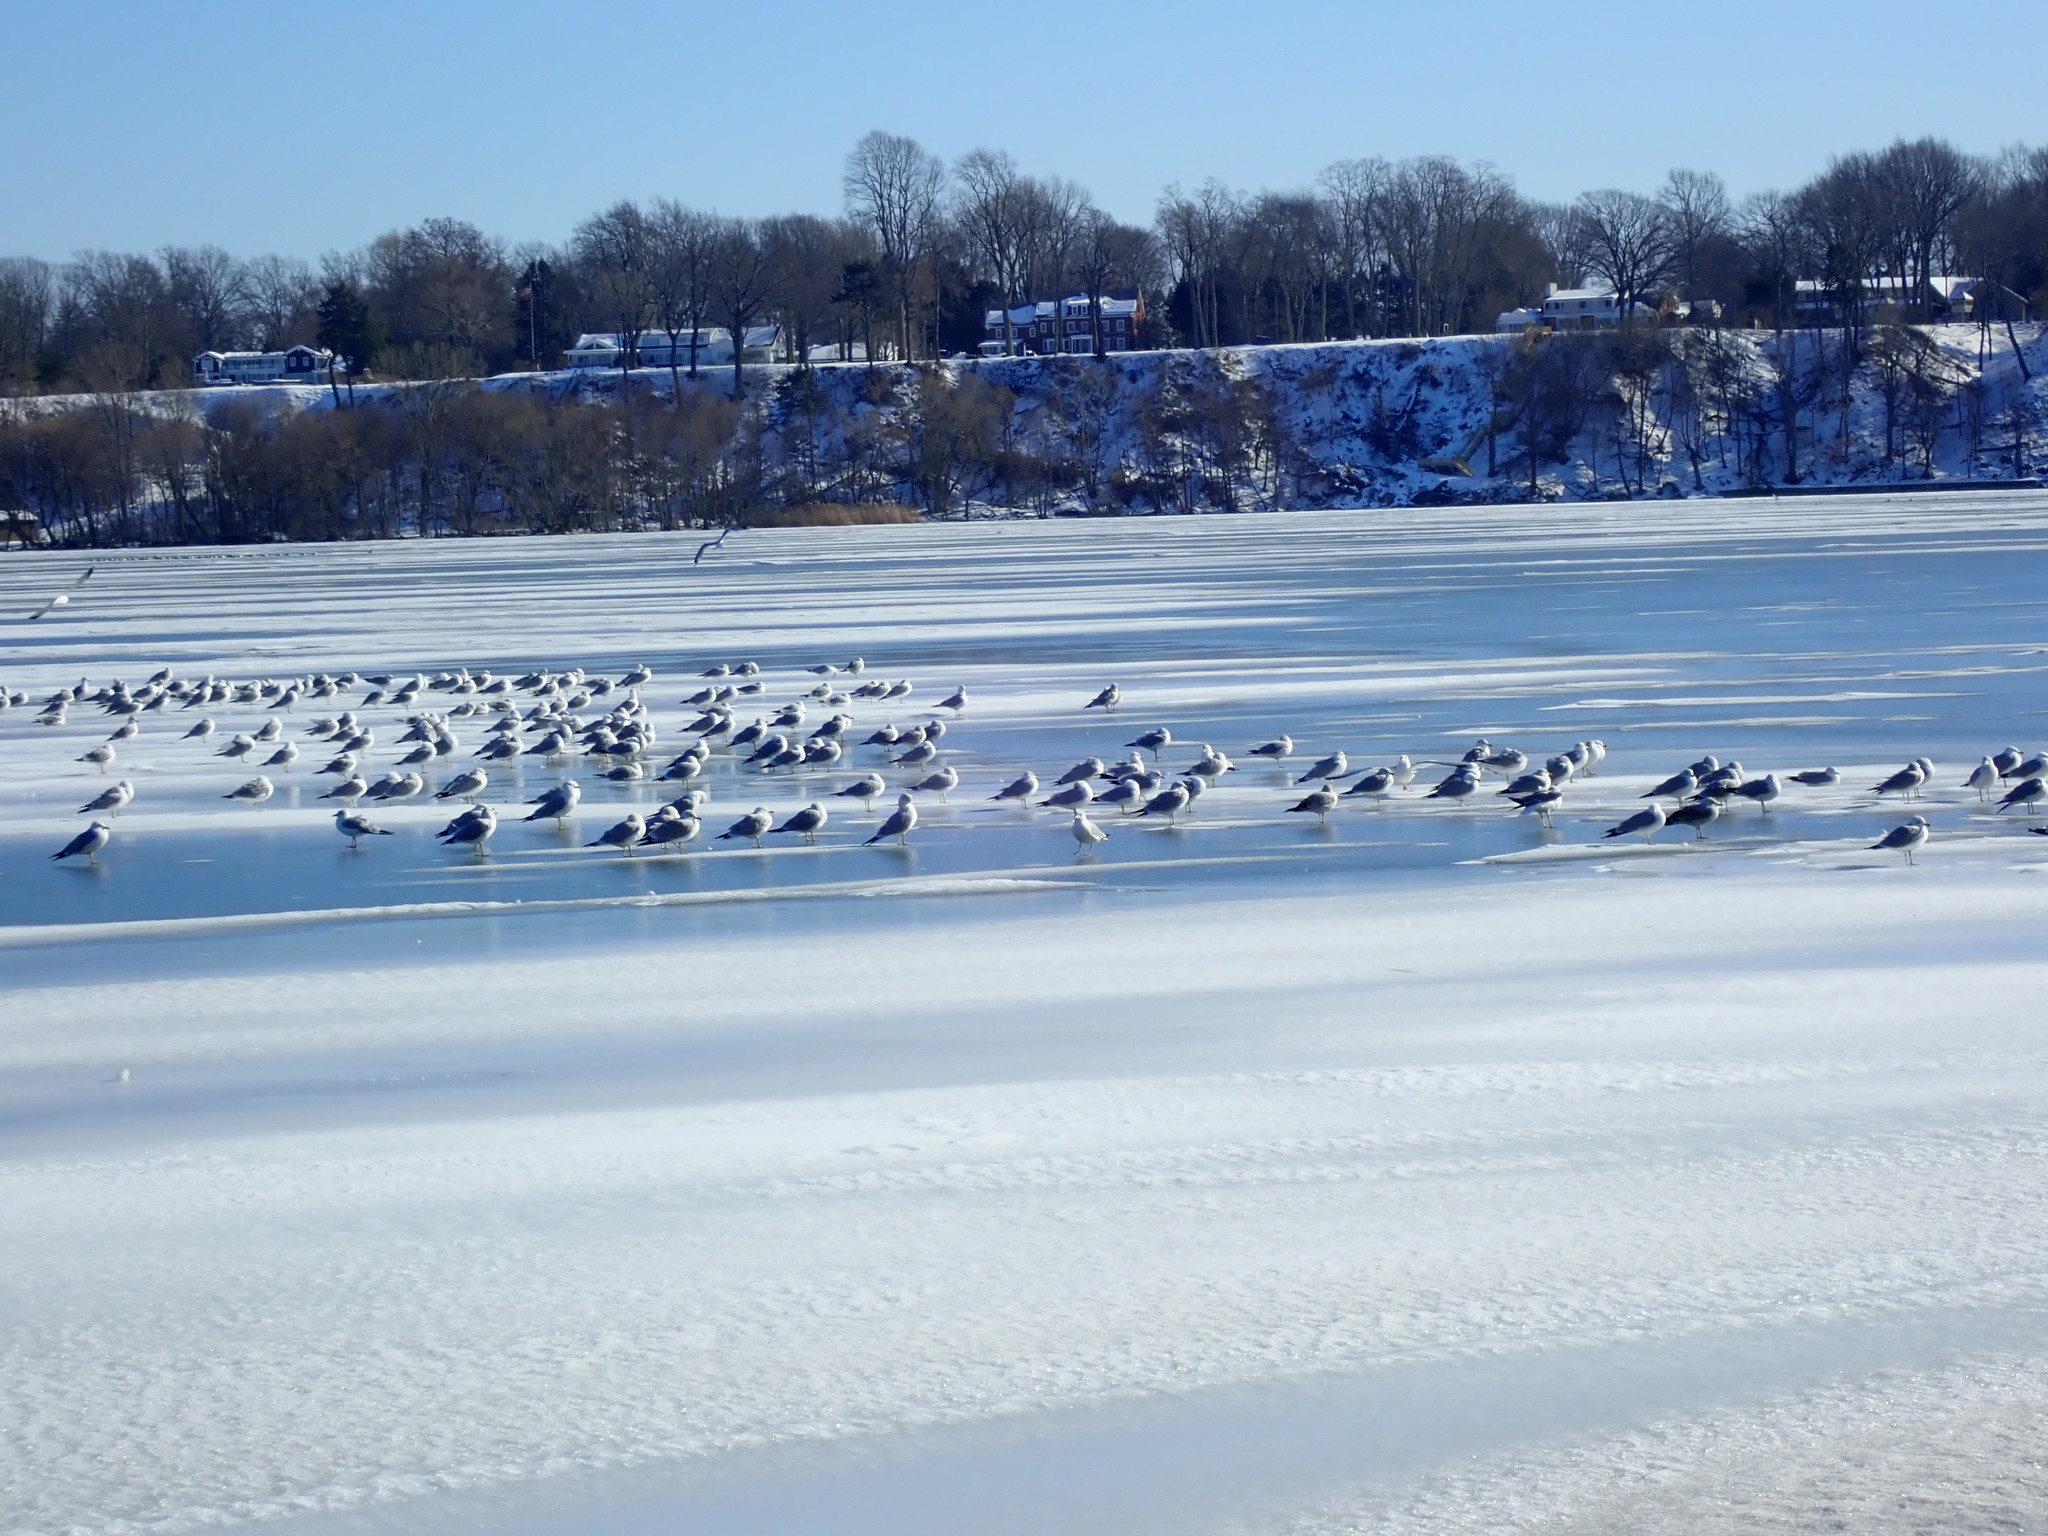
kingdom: Animalia
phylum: Chordata
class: Aves
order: Charadriiformes
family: Laridae
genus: Larus
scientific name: Larus delawarensis
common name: Ring-billed gull
